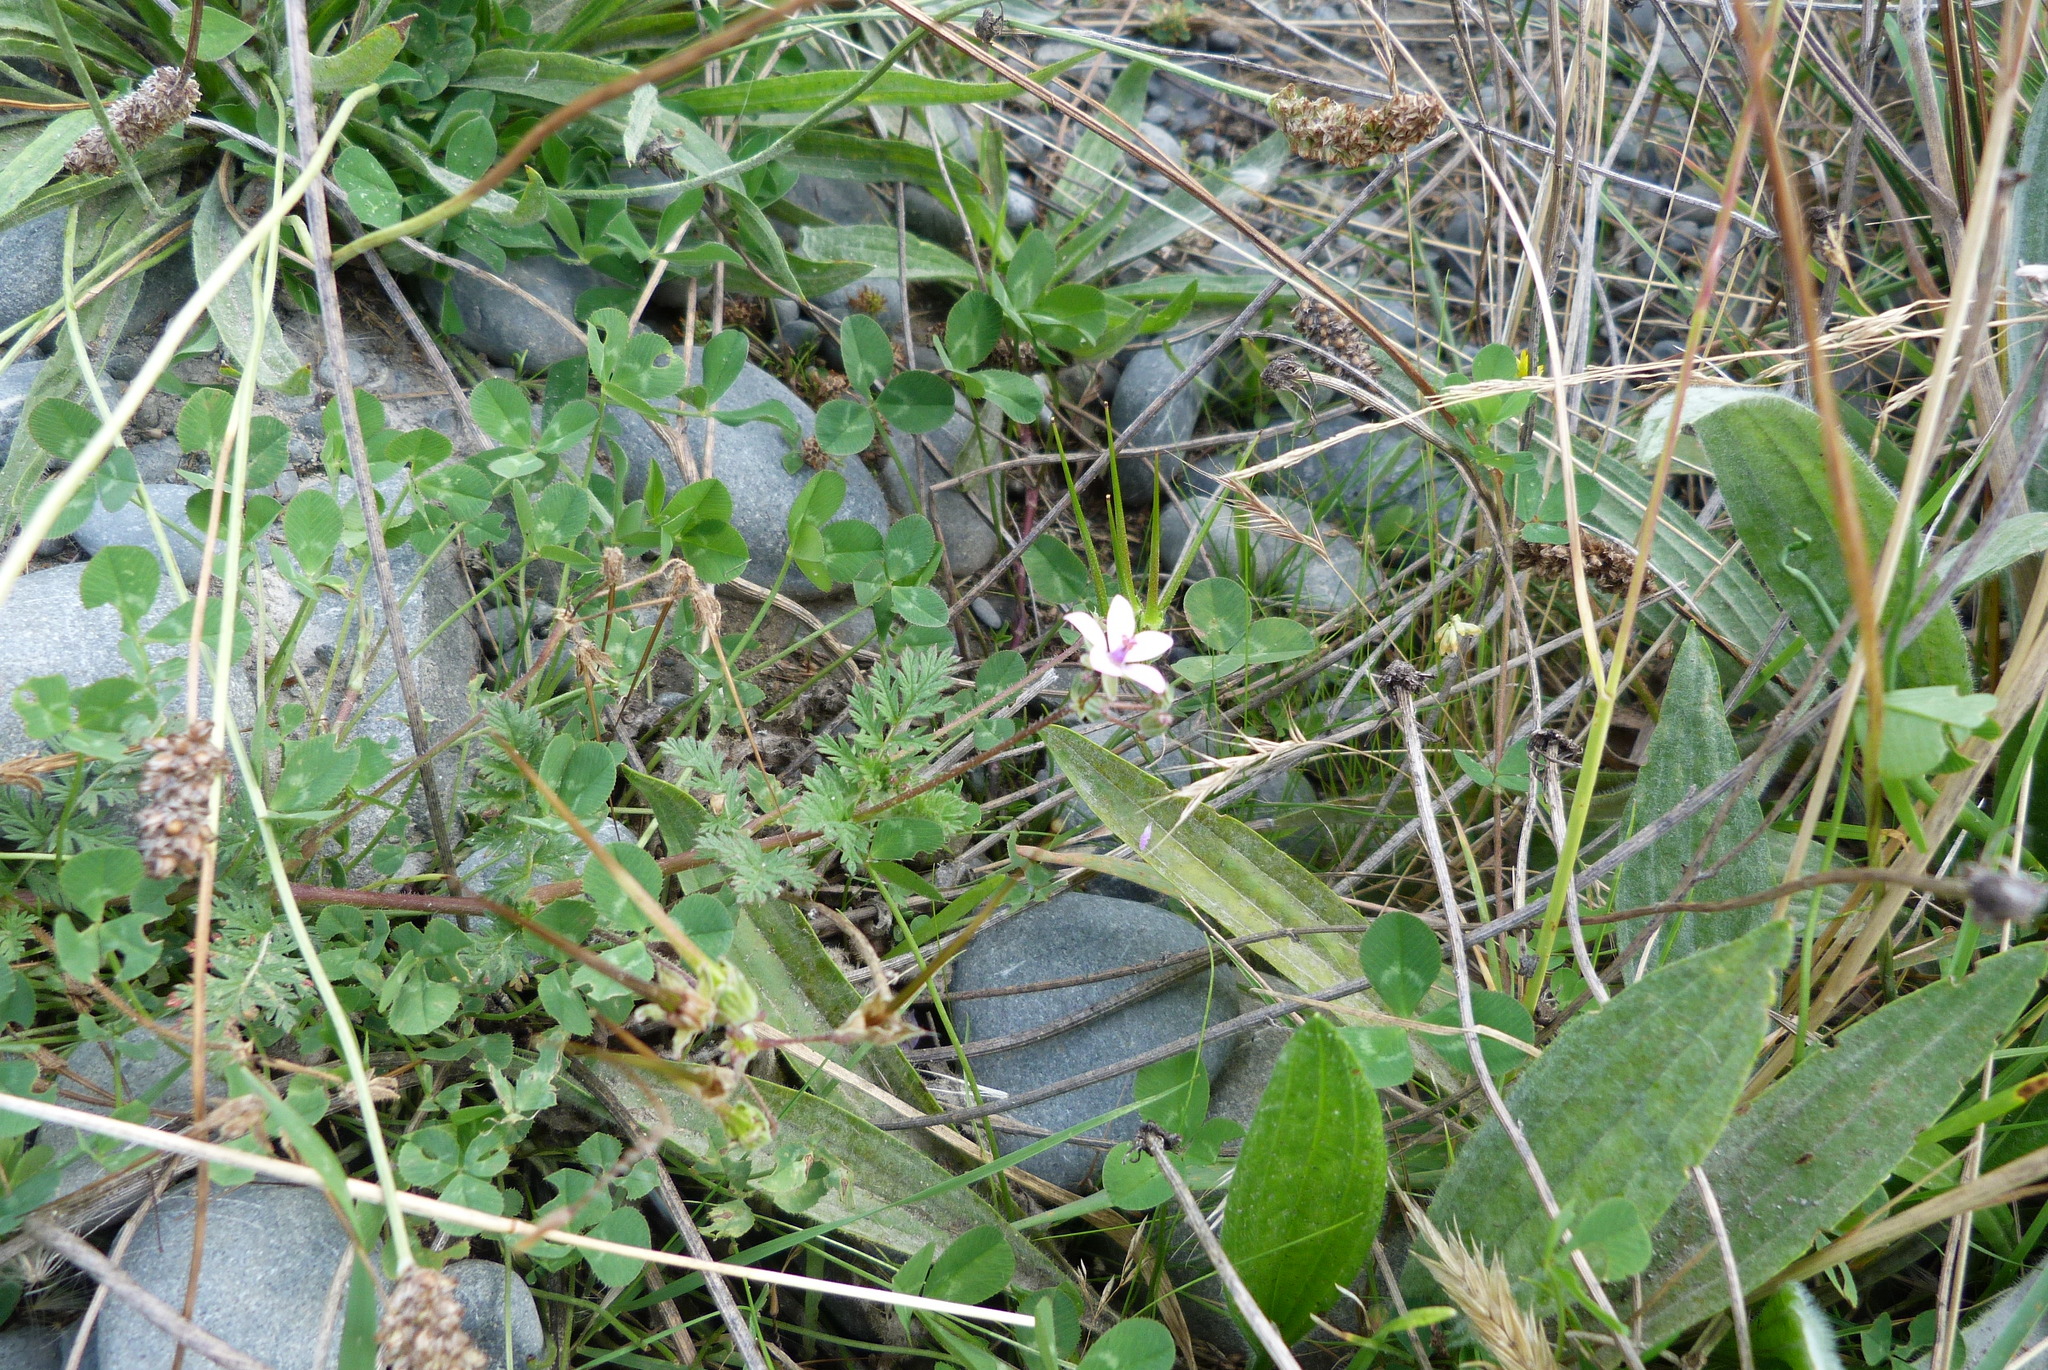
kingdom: Plantae
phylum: Tracheophyta
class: Magnoliopsida
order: Geraniales
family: Geraniaceae
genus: Erodium
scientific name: Erodium cicutarium
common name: Common stork's-bill
